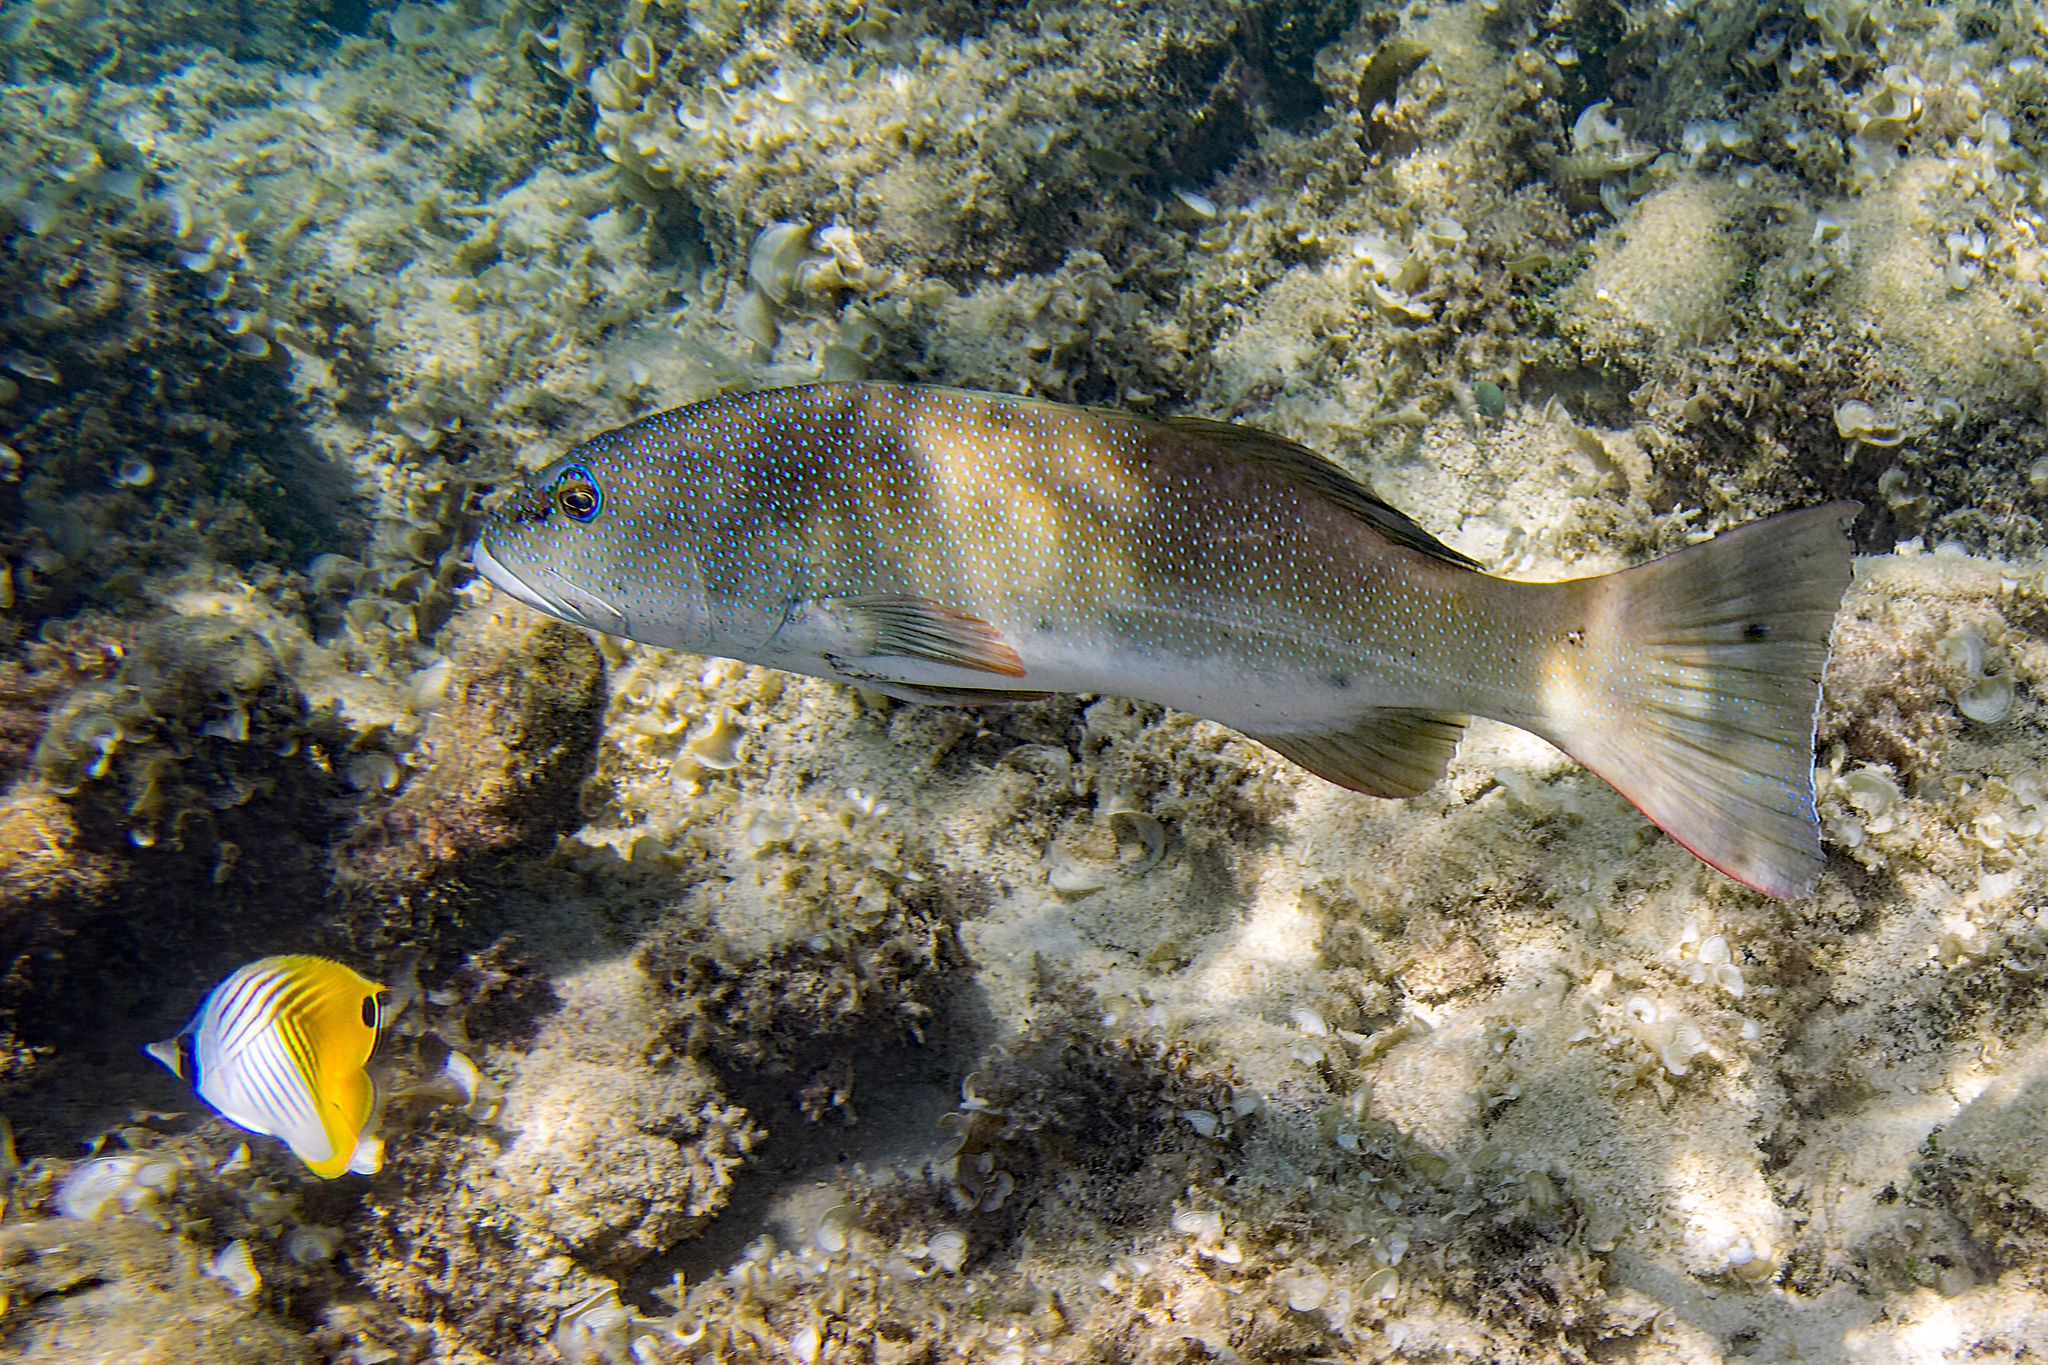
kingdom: Animalia
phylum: Chordata
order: Perciformes
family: Serranidae
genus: Plectropomus
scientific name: Plectropomus leopardus
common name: Coral trout
